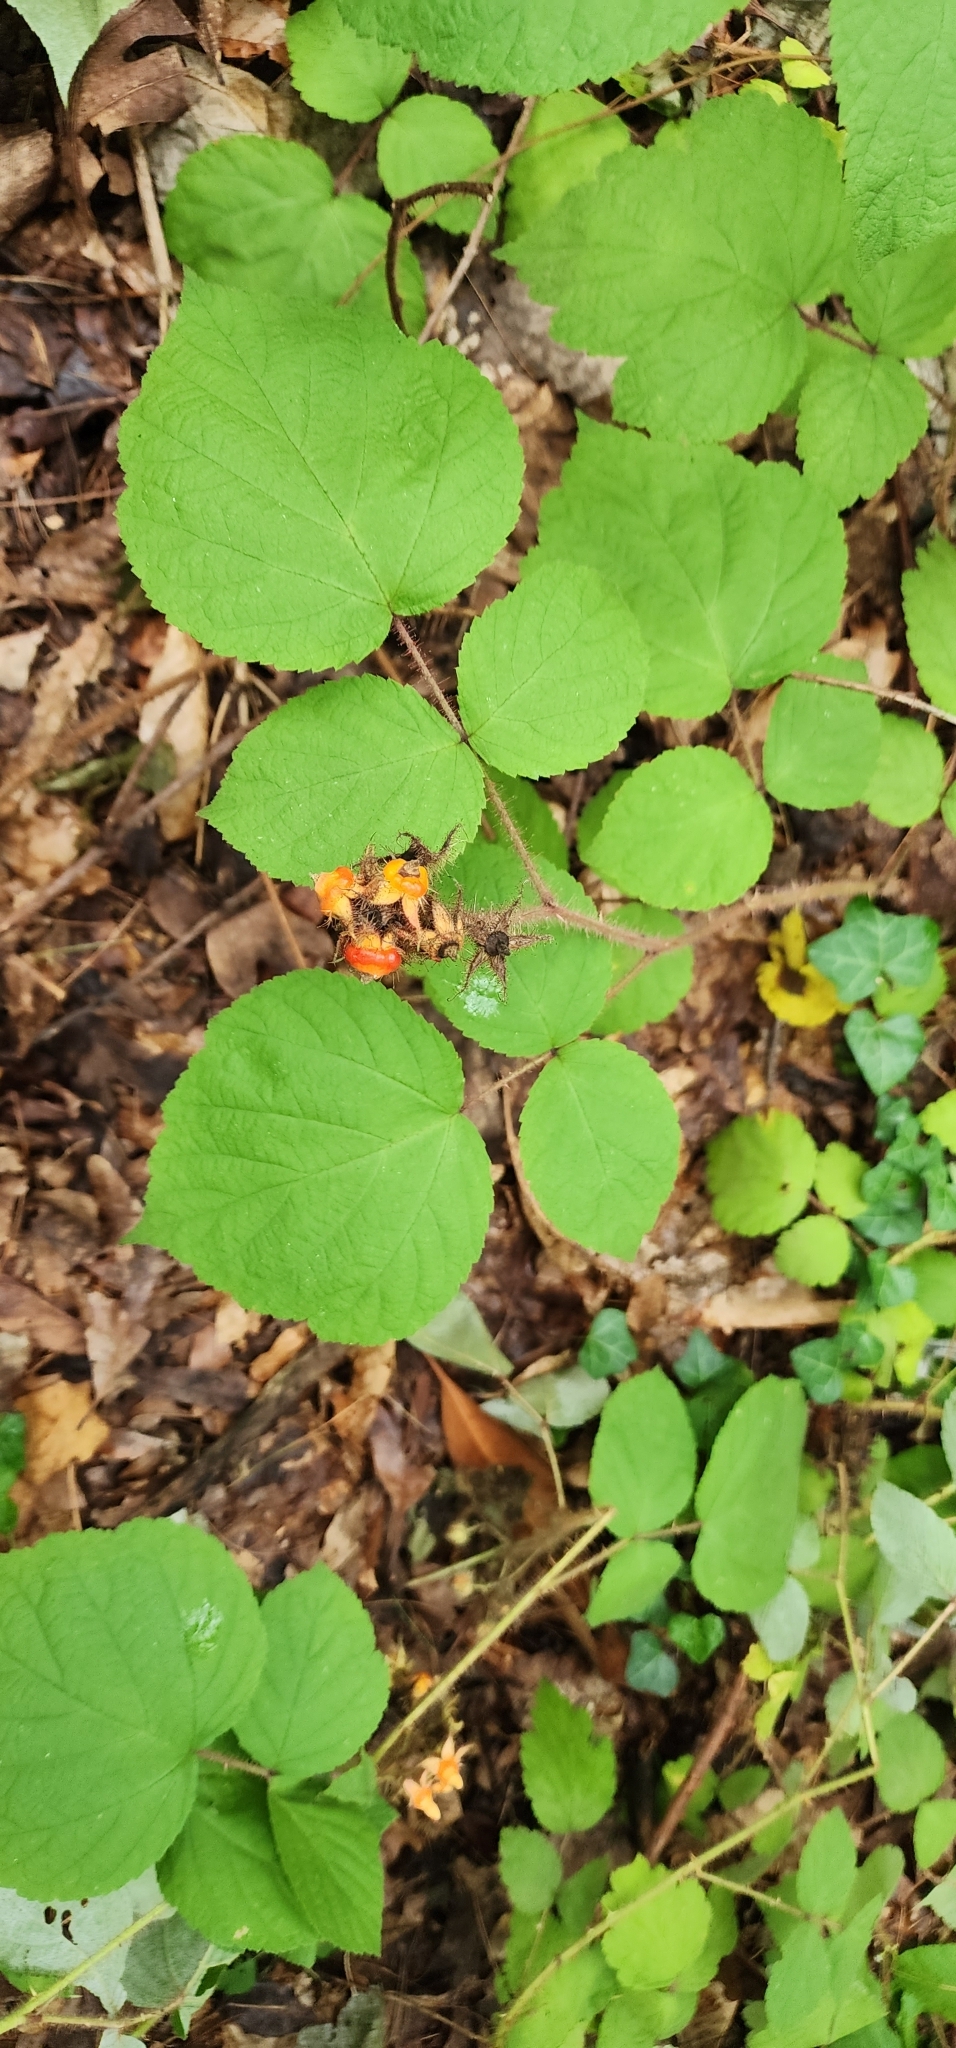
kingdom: Plantae
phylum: Tracheophyta
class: Magnoliopsida
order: Rosales
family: Rosaceae
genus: Rubus
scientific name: Rubus phoenicolasius
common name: Japanese wineberry
